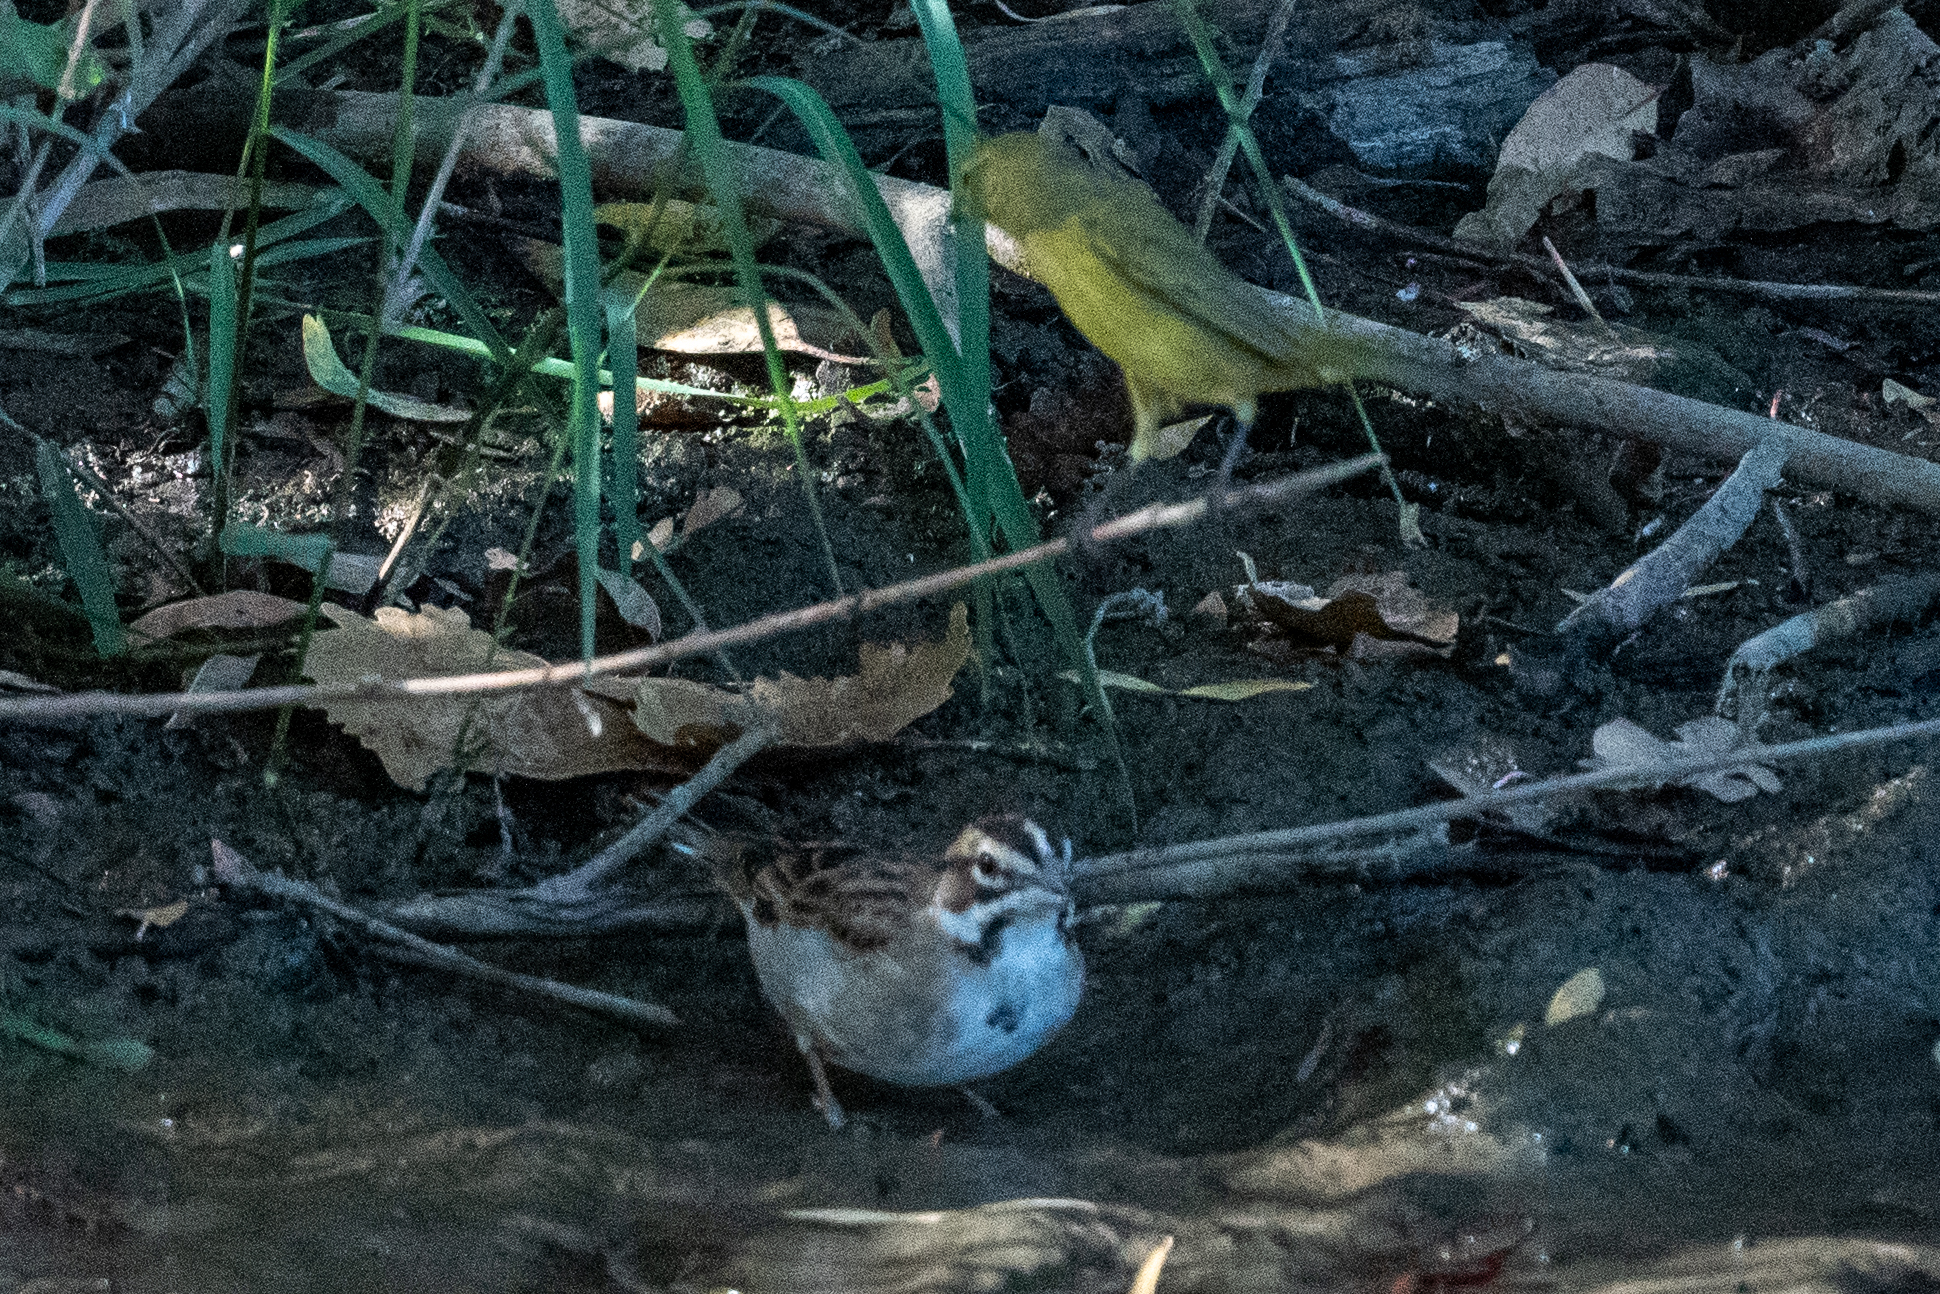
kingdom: Animalia
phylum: Chordata
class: Aves
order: Passeriformes
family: Passerellidae
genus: Chondestes
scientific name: Chondestes grammacus
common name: Lark sparrow
